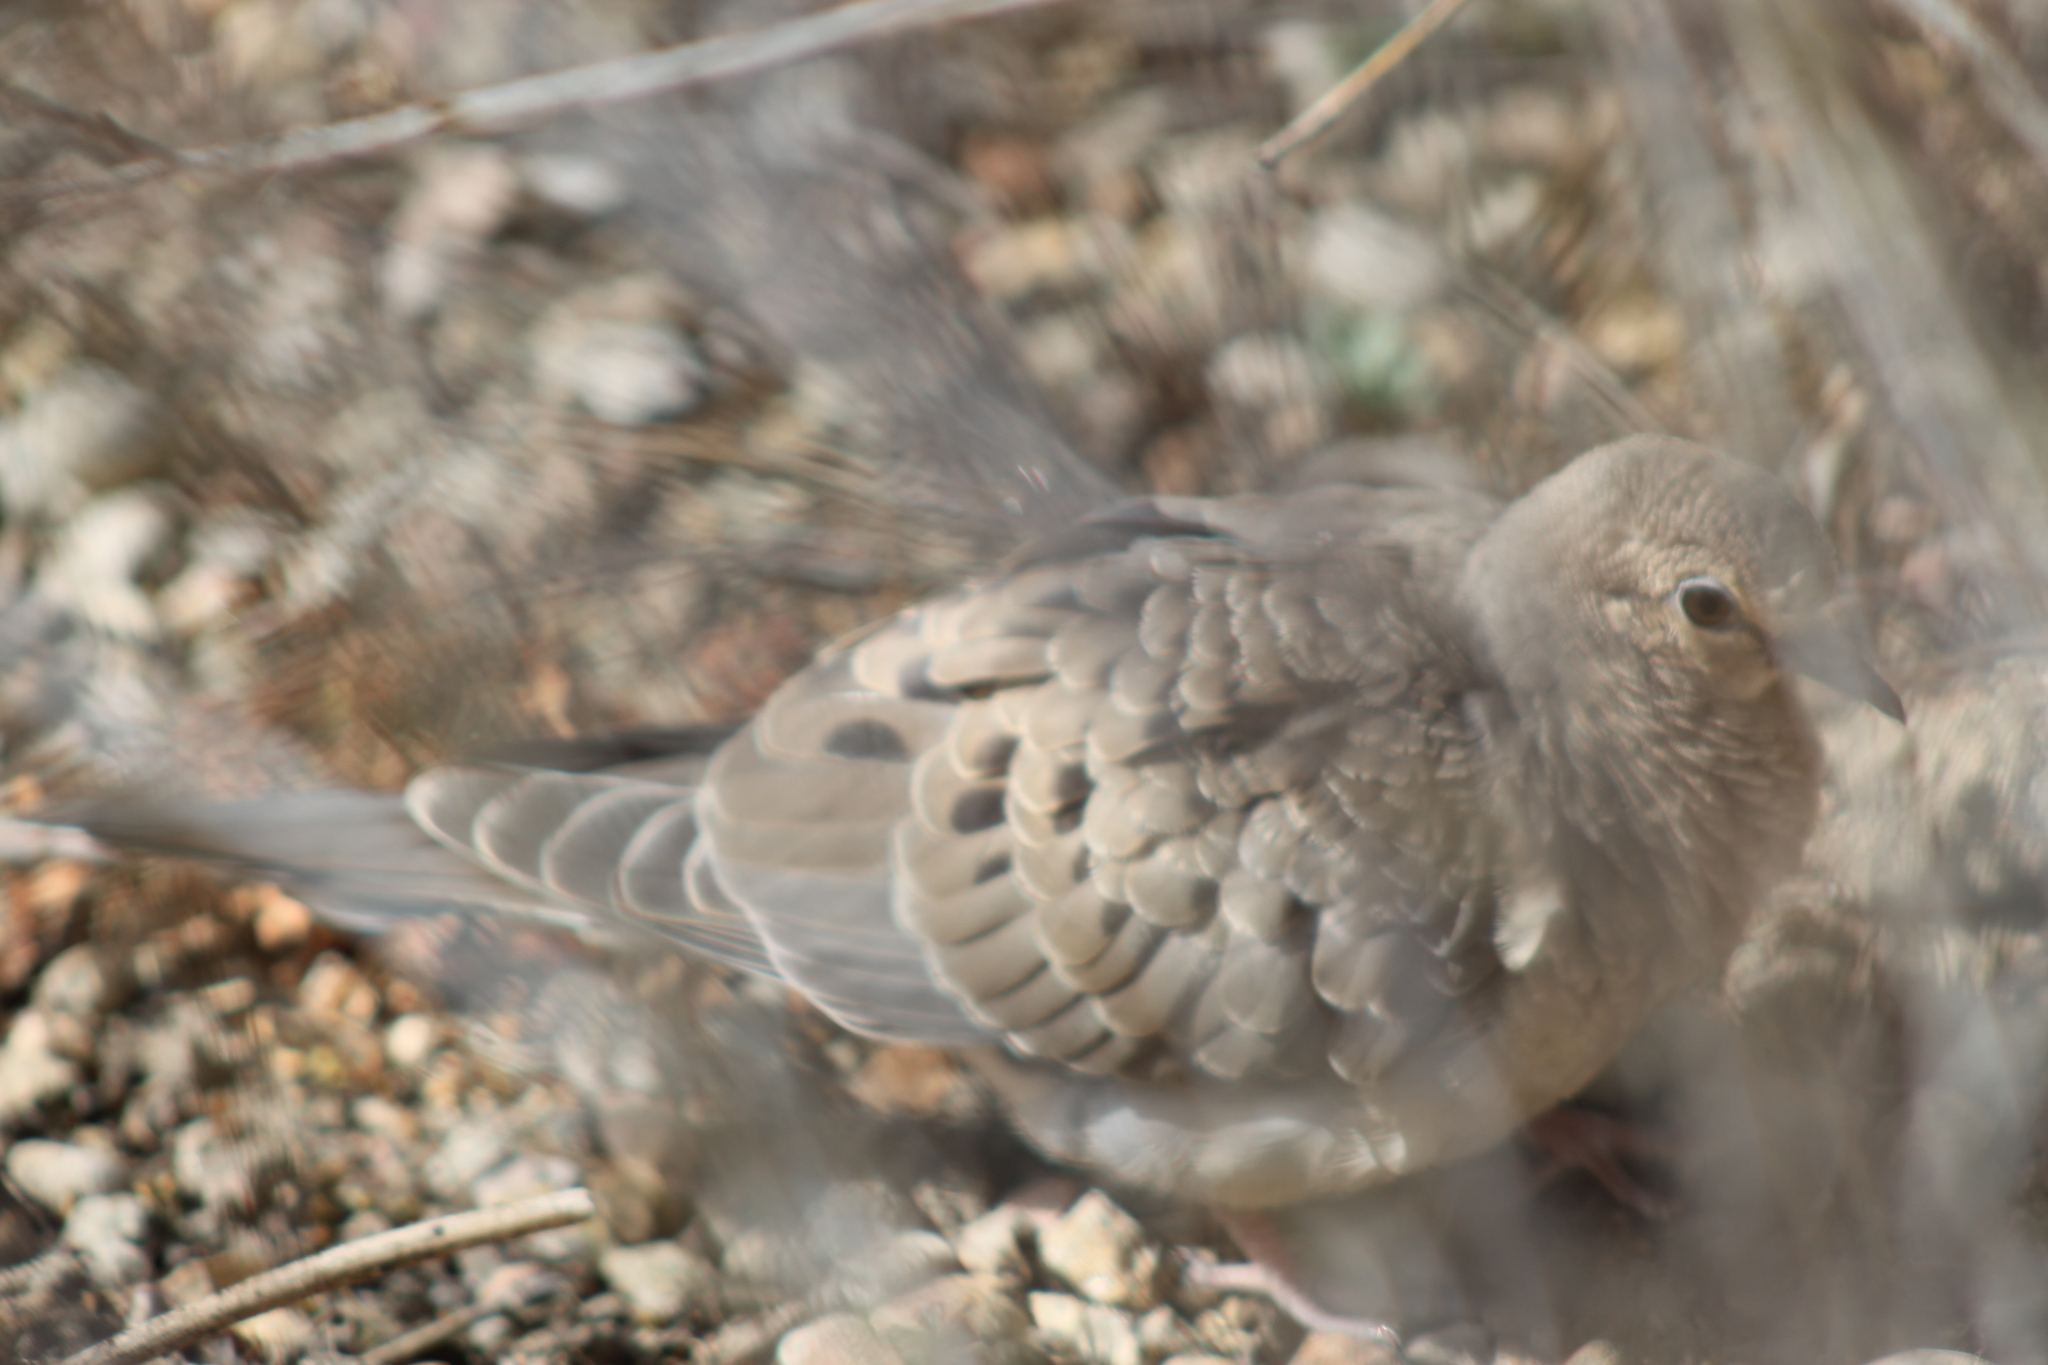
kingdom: Animalia
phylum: Chordata
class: Aves
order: Columbiformes
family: Columbidae
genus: Zenaida
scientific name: Zenaida macroura
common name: Mourning dove
